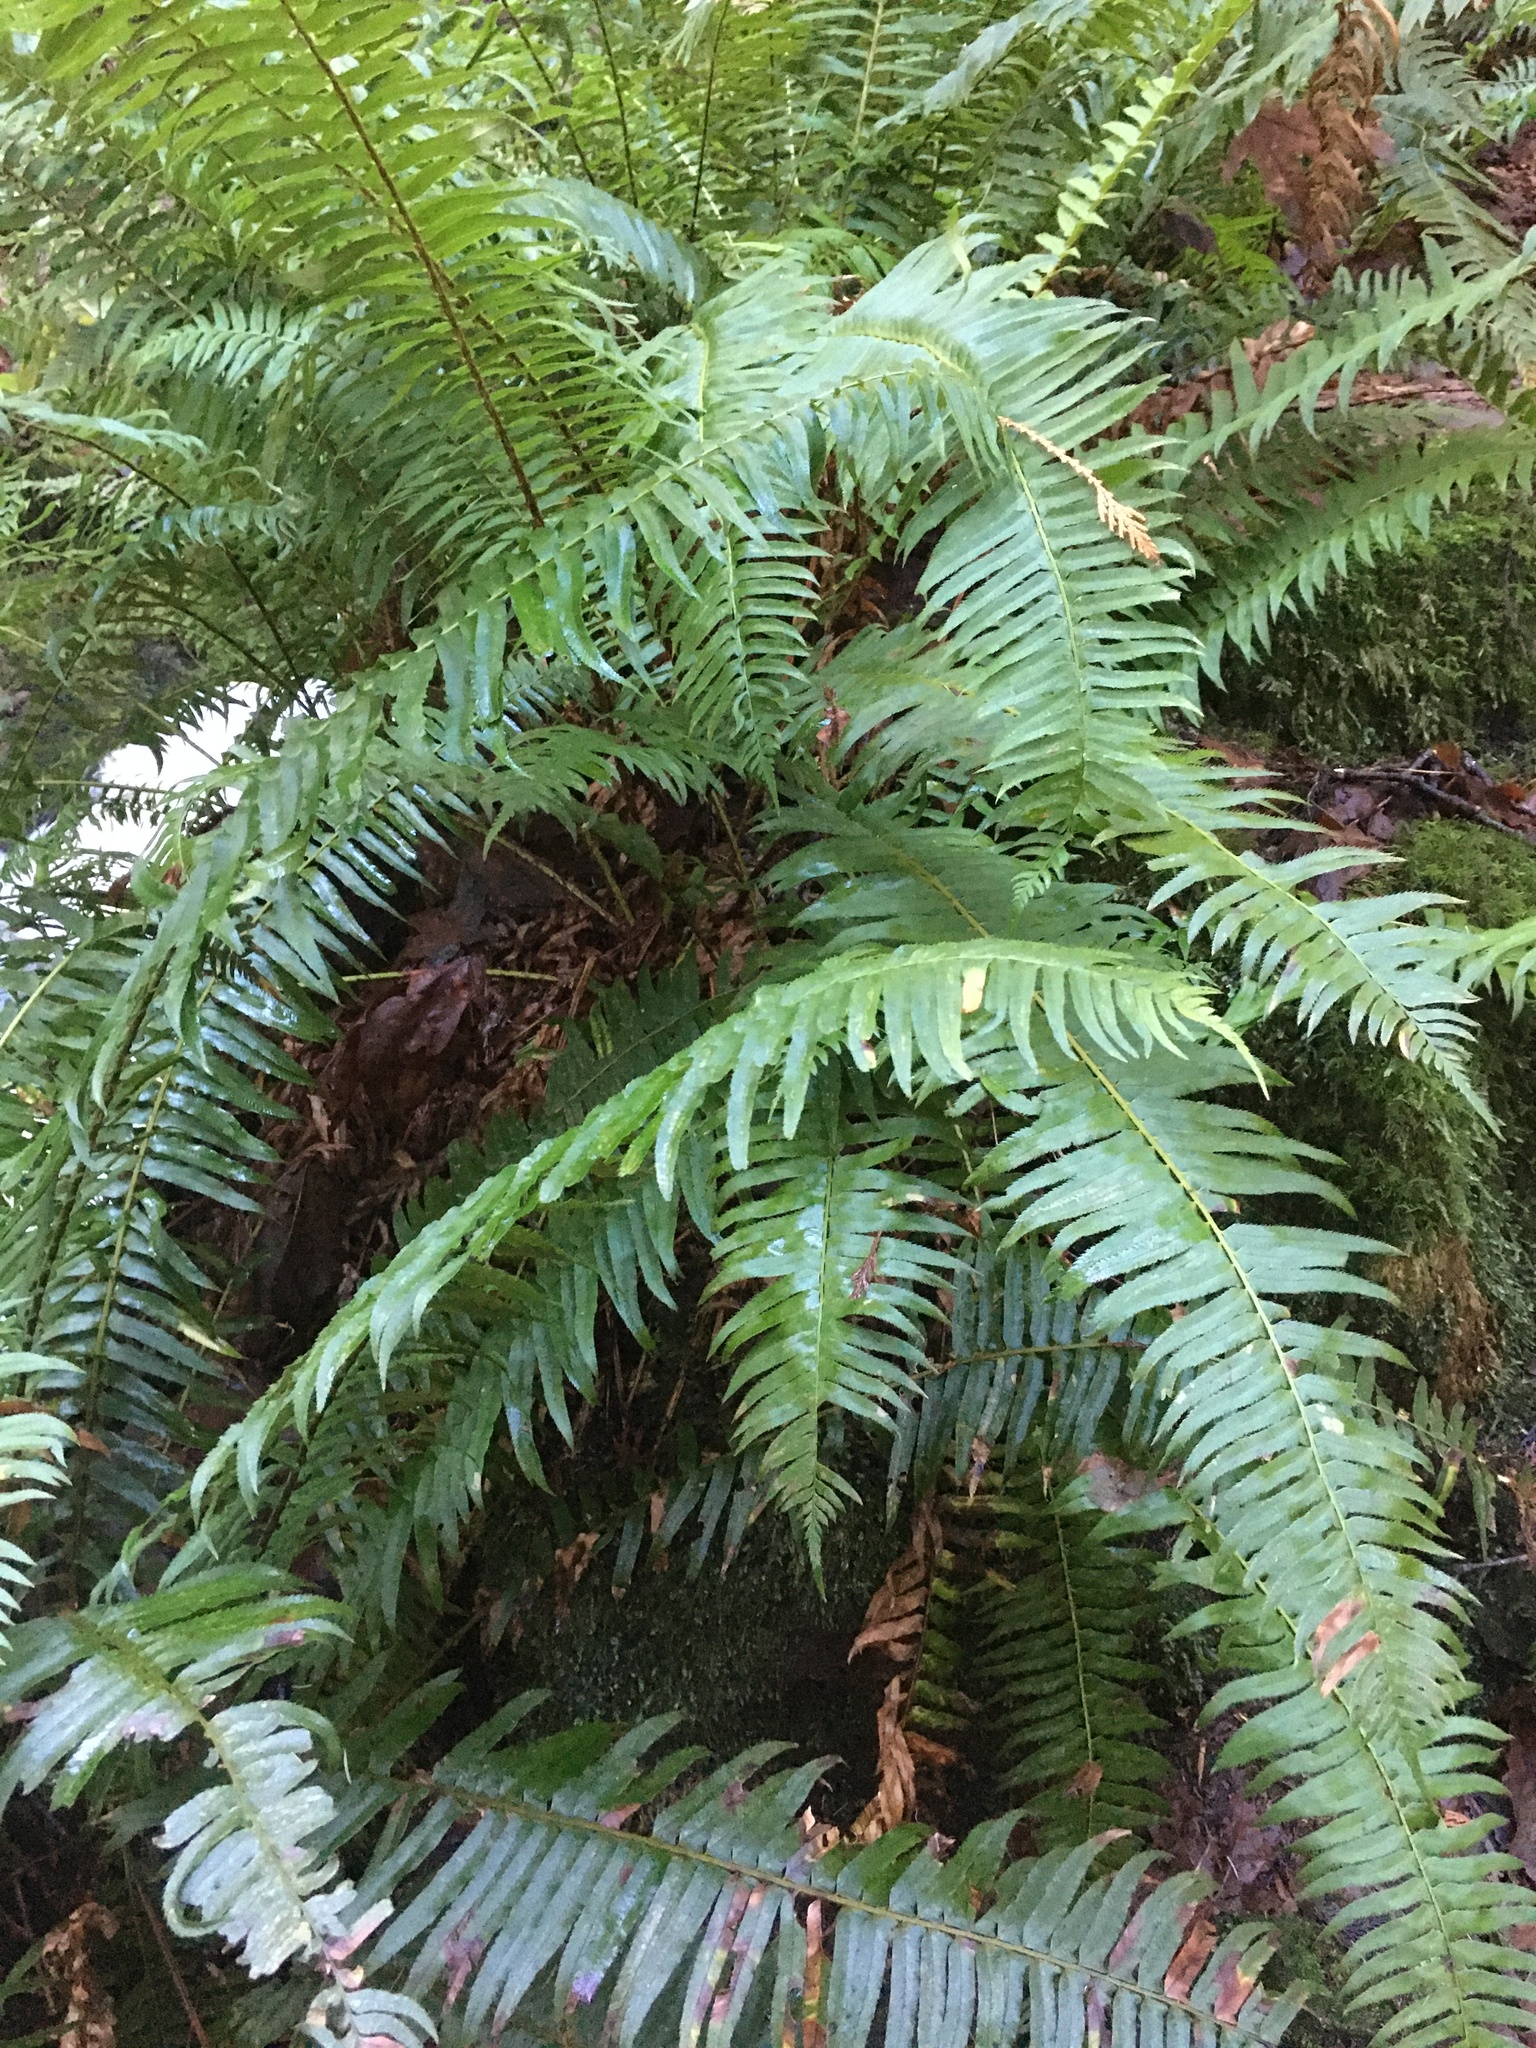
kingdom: Plantae
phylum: Tracheophyta
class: Polypodiopsida
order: Polypodiales
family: Dryopteridaceae
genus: Polystichum
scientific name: Polystichum munitum
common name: Western sword-fern
